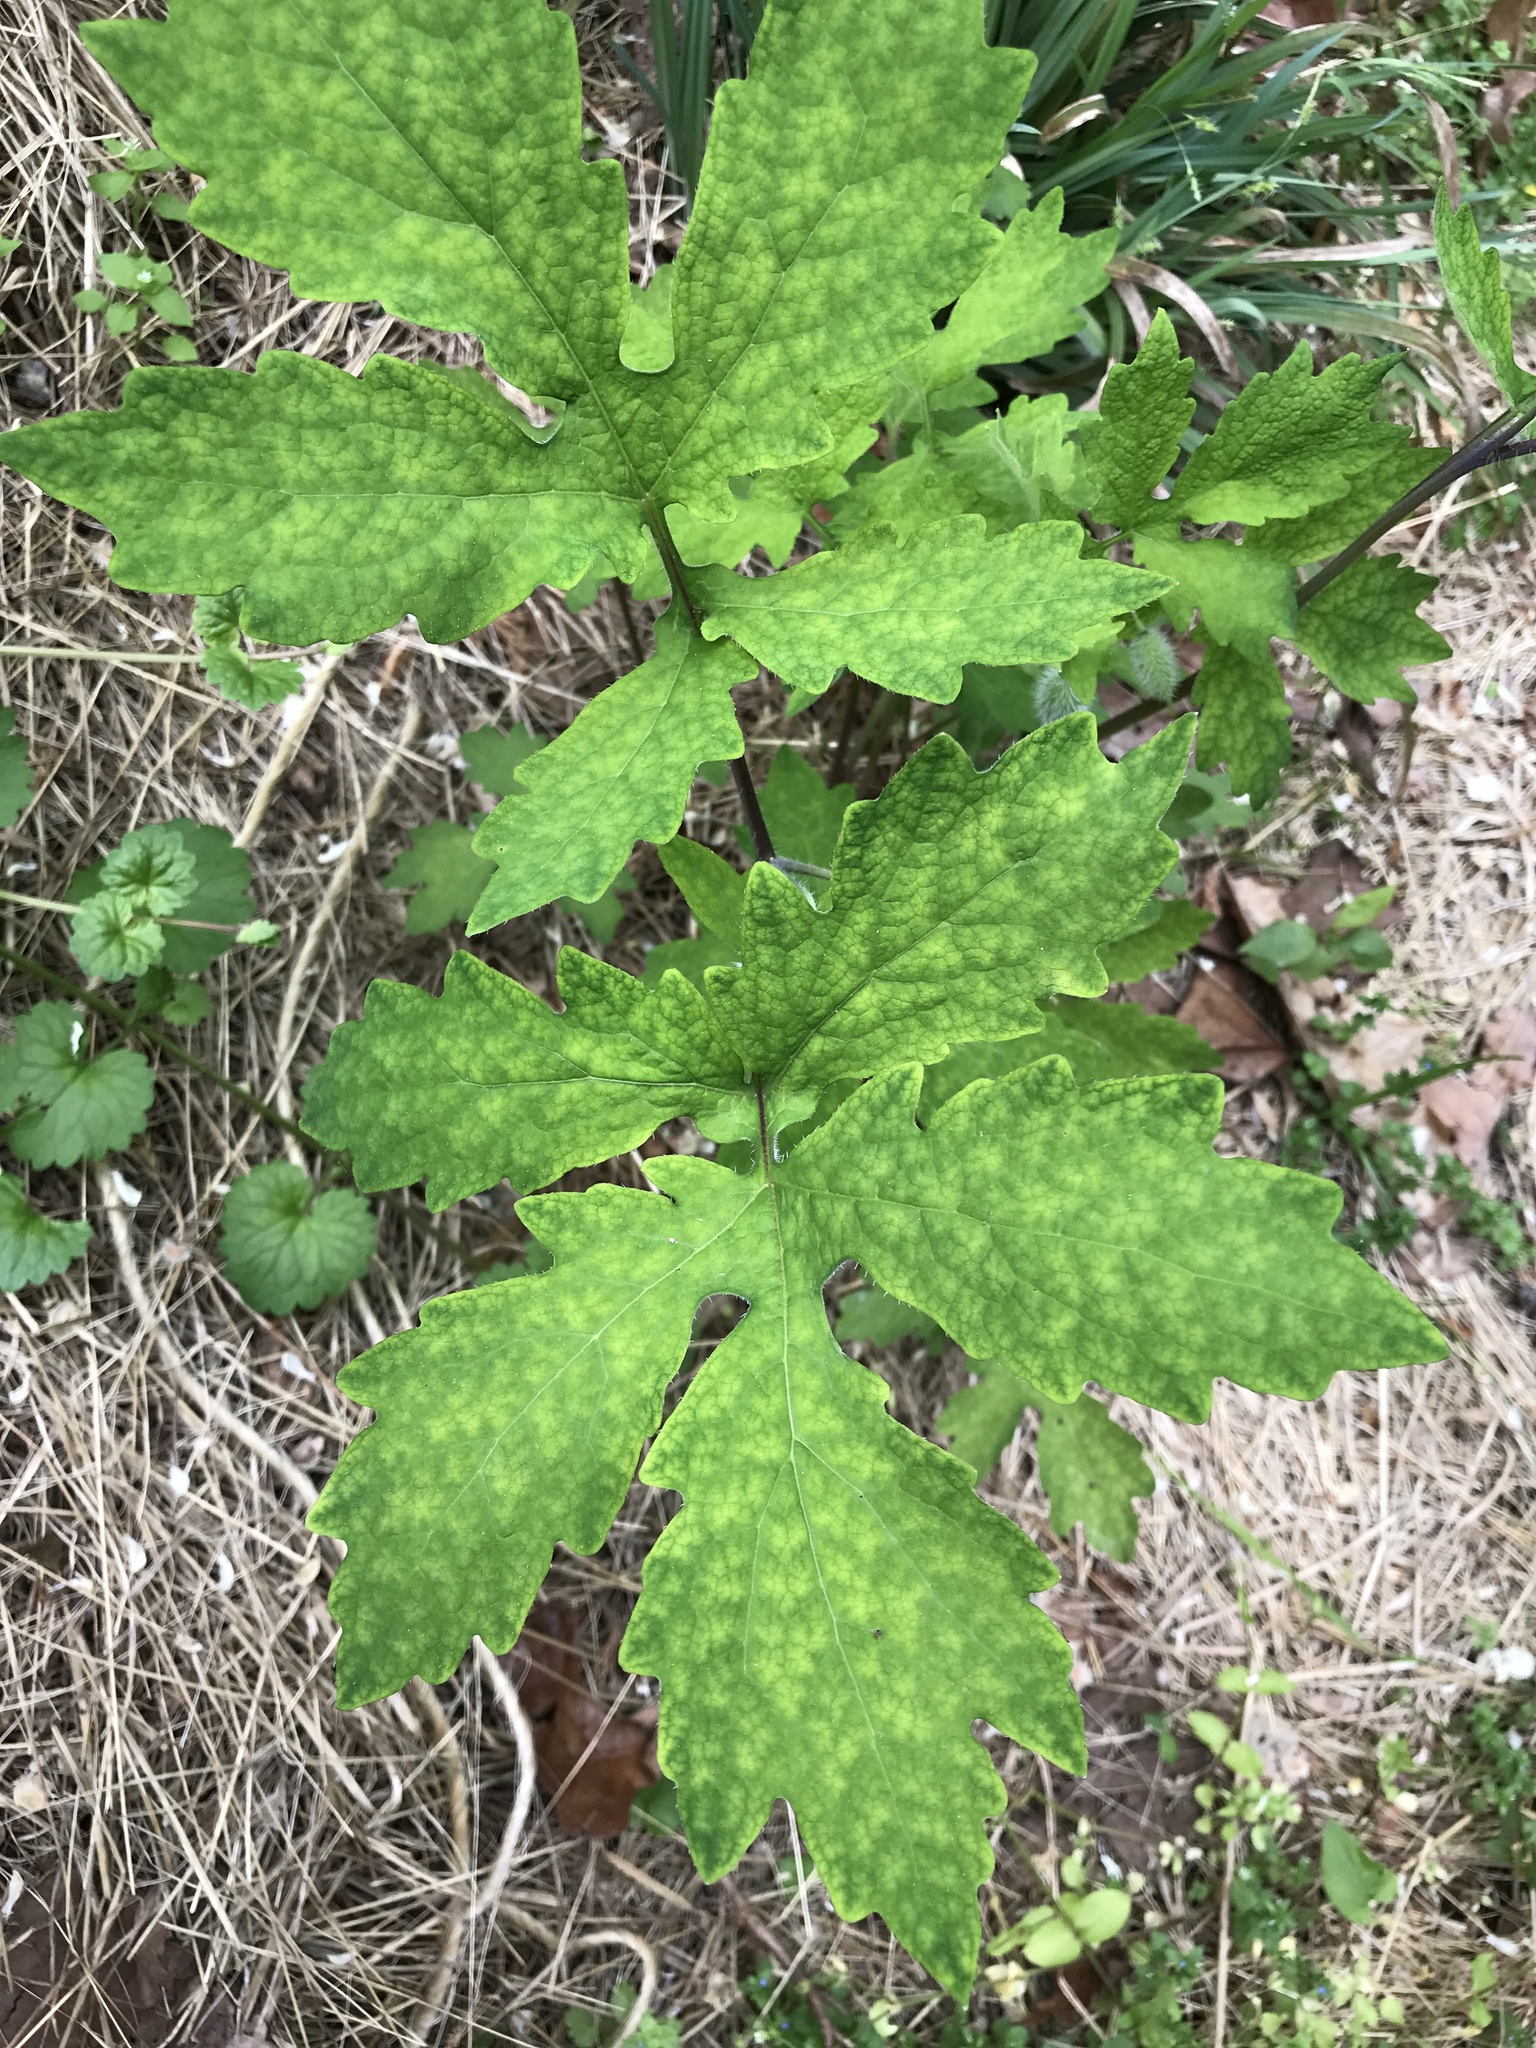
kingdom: Plantae
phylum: Tracheophyta
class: Magnoliopsida
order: Ranunculales
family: Papaveraceae
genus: Stylophorum
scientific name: Stylophorum diphyllum
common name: Celandine poppy
